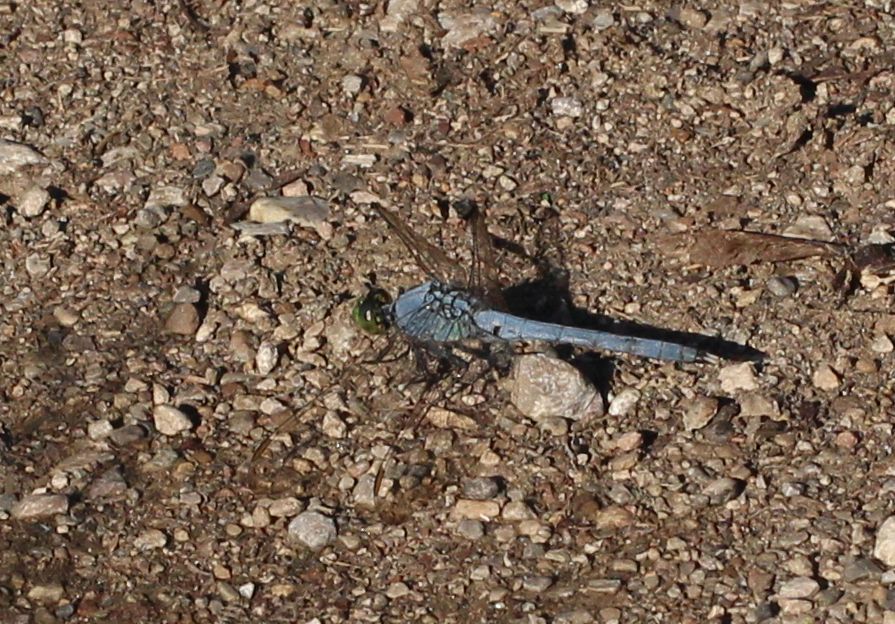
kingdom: Animalia
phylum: Arthropoda
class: Insecta
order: Odonata
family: Libellulidae
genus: Erythemis
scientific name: Erythemis simplicicollis
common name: Eastern pondhawk
